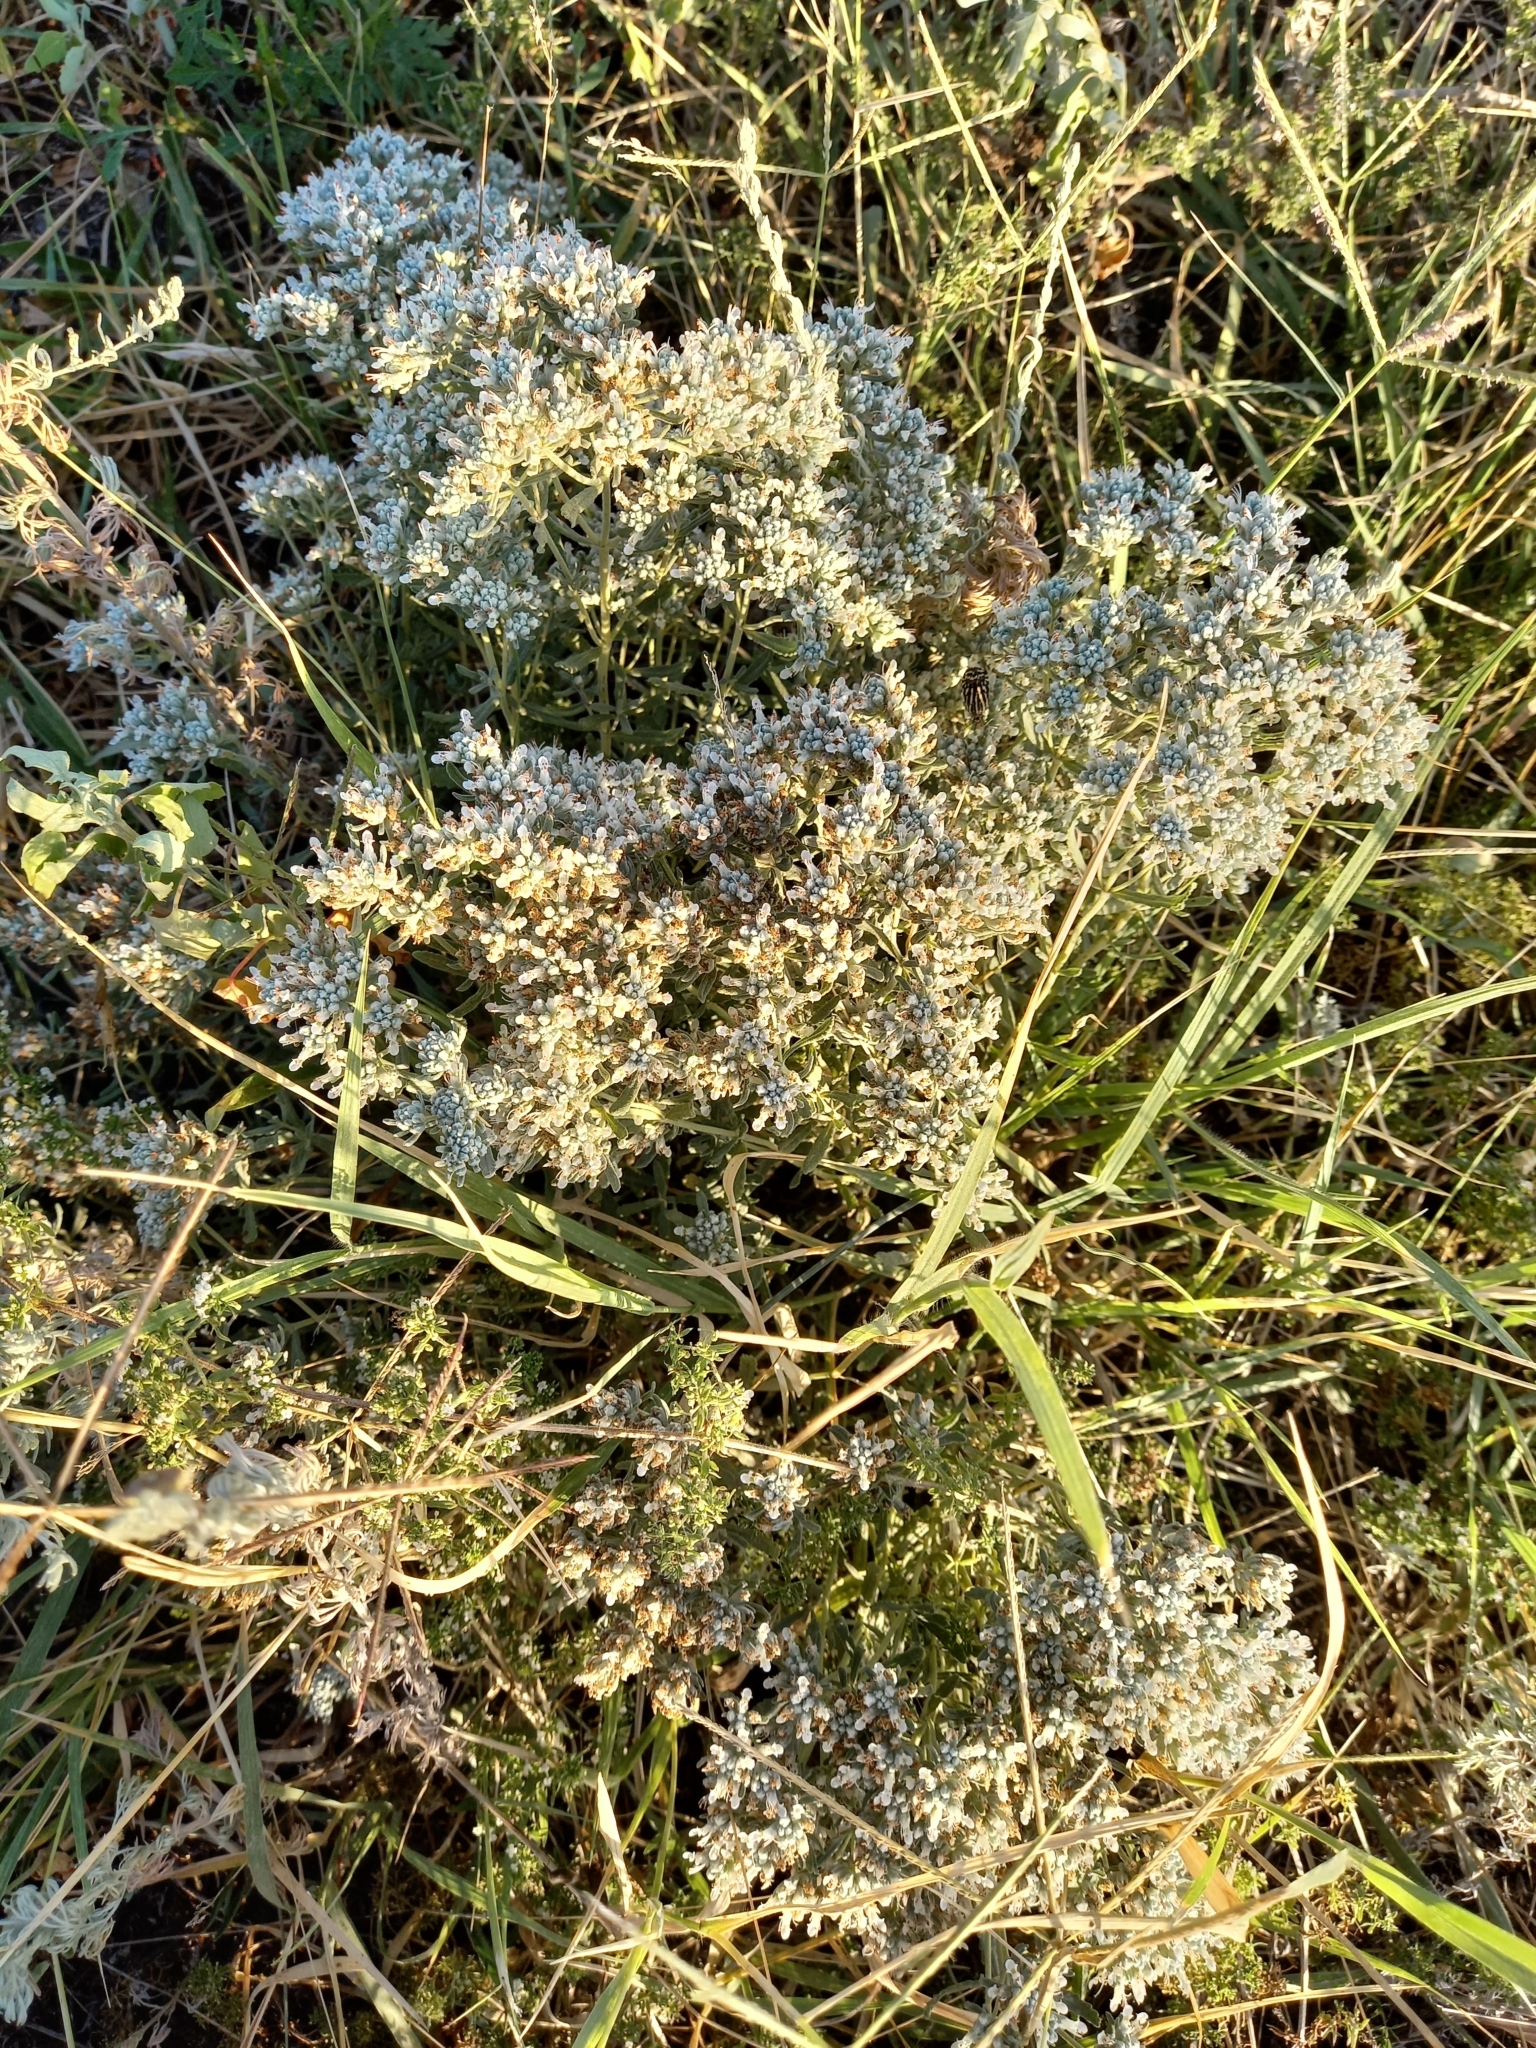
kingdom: Plantae
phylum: Tracheophyta
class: Magnoliopsida
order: Lamiales
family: Lamiaceae
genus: Teucrium
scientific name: Teucrium polium
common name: Poley
